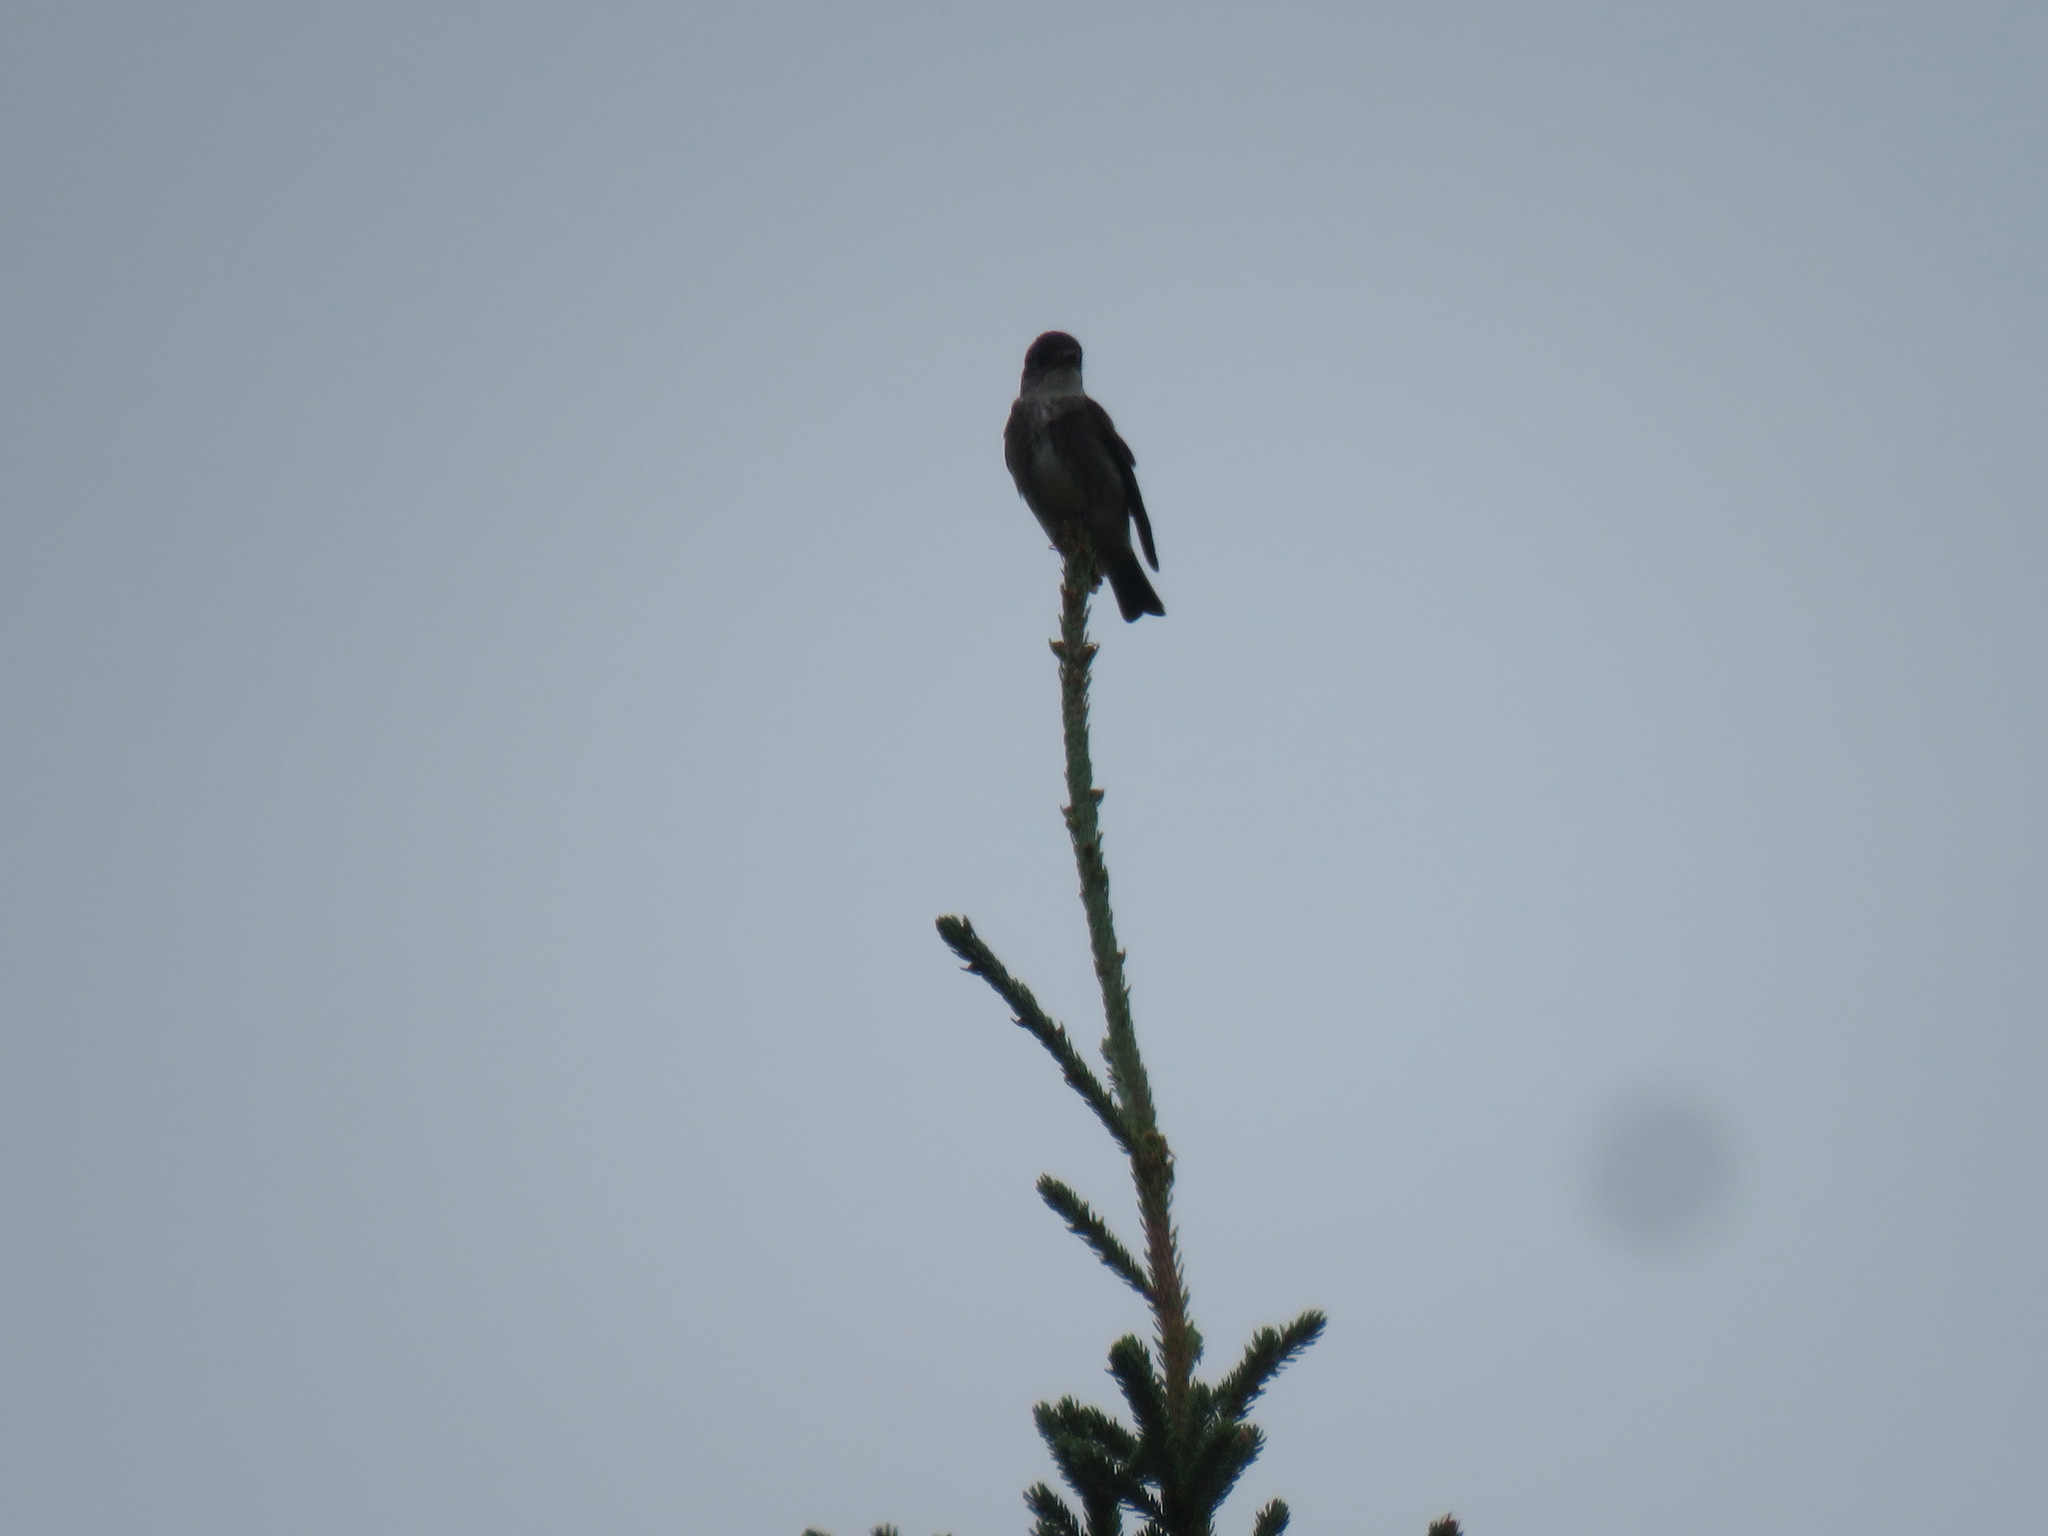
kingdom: Animalia
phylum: Chordata
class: Aves
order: Passeriformes
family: Tyrannidae
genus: Contopus
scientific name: Contopus cooperi
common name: Olive-sided flycatcher
